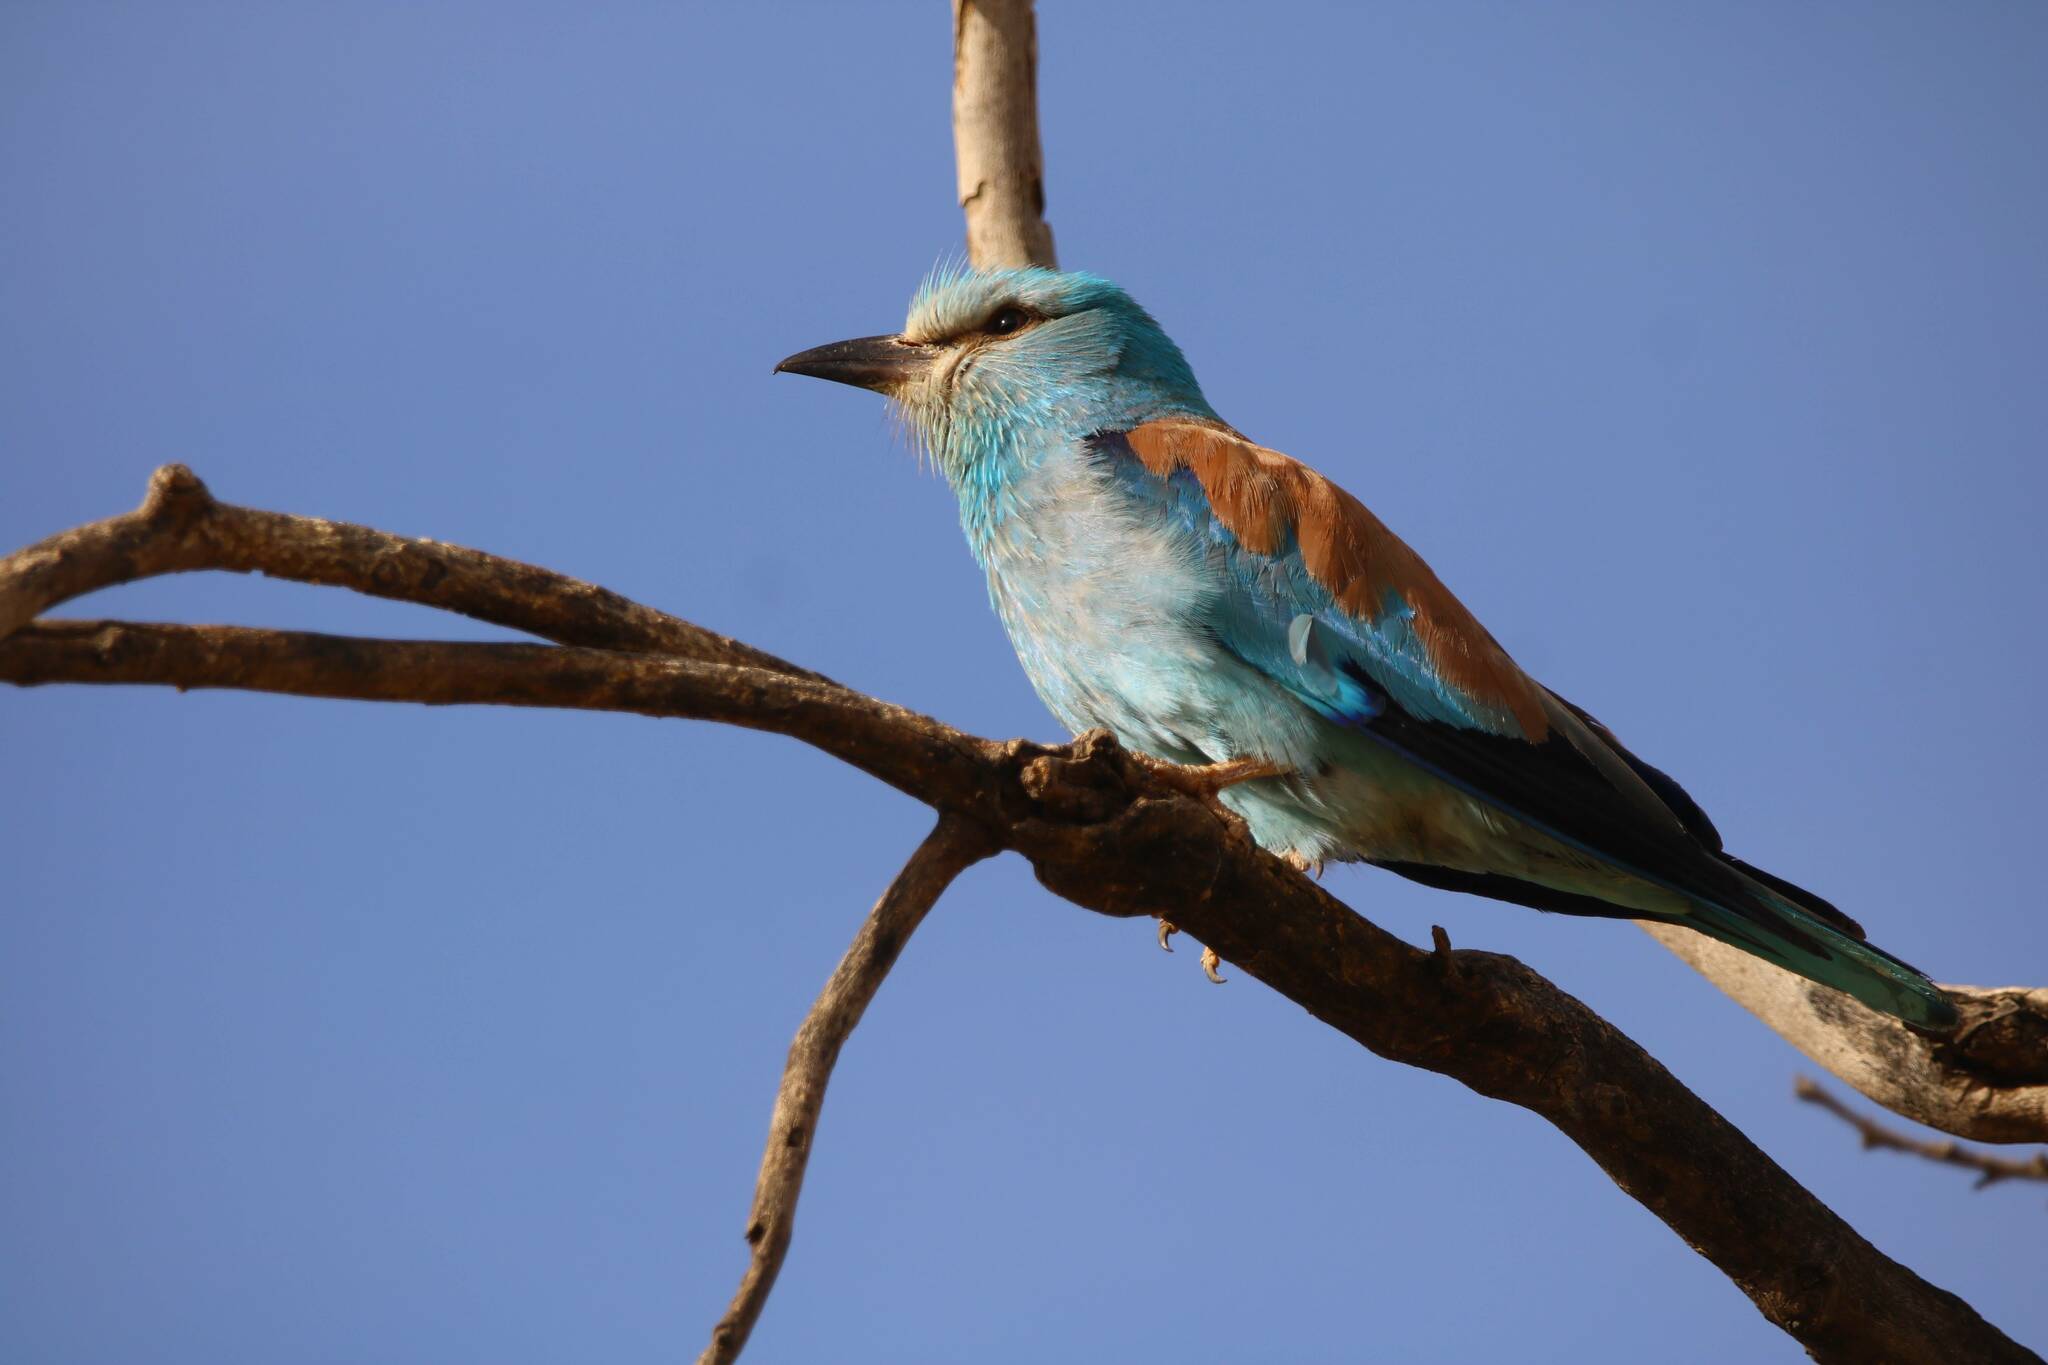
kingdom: Animalia
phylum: Chordata
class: Aves
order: Coraciiformes
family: Coraciidae
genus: Coracias
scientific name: Coracias garrulus
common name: European roller
